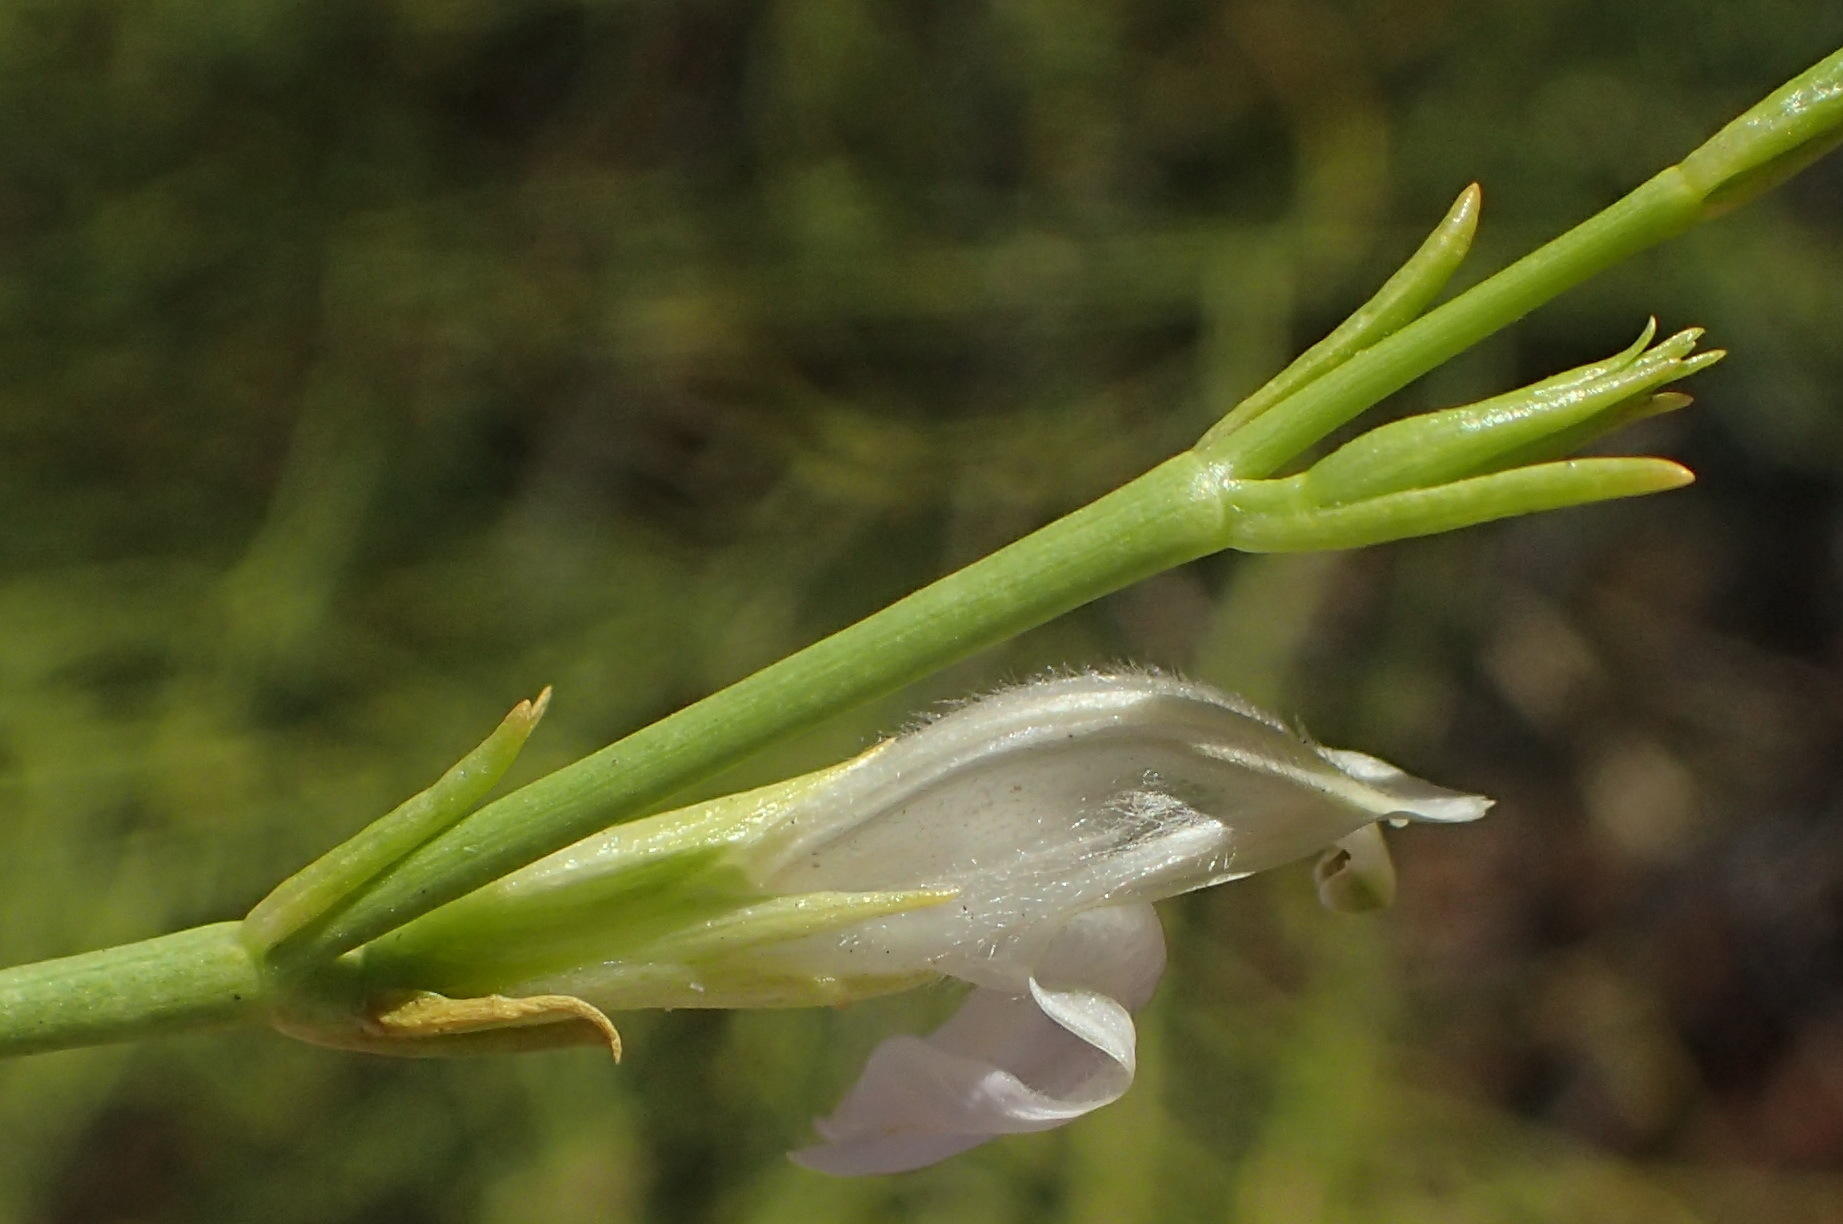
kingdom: Plantae
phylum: Tracheophyta
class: Magnoliopsida
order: Lamiales
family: Acanthaceae
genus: Pogonospermum
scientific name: Pogonospermum
